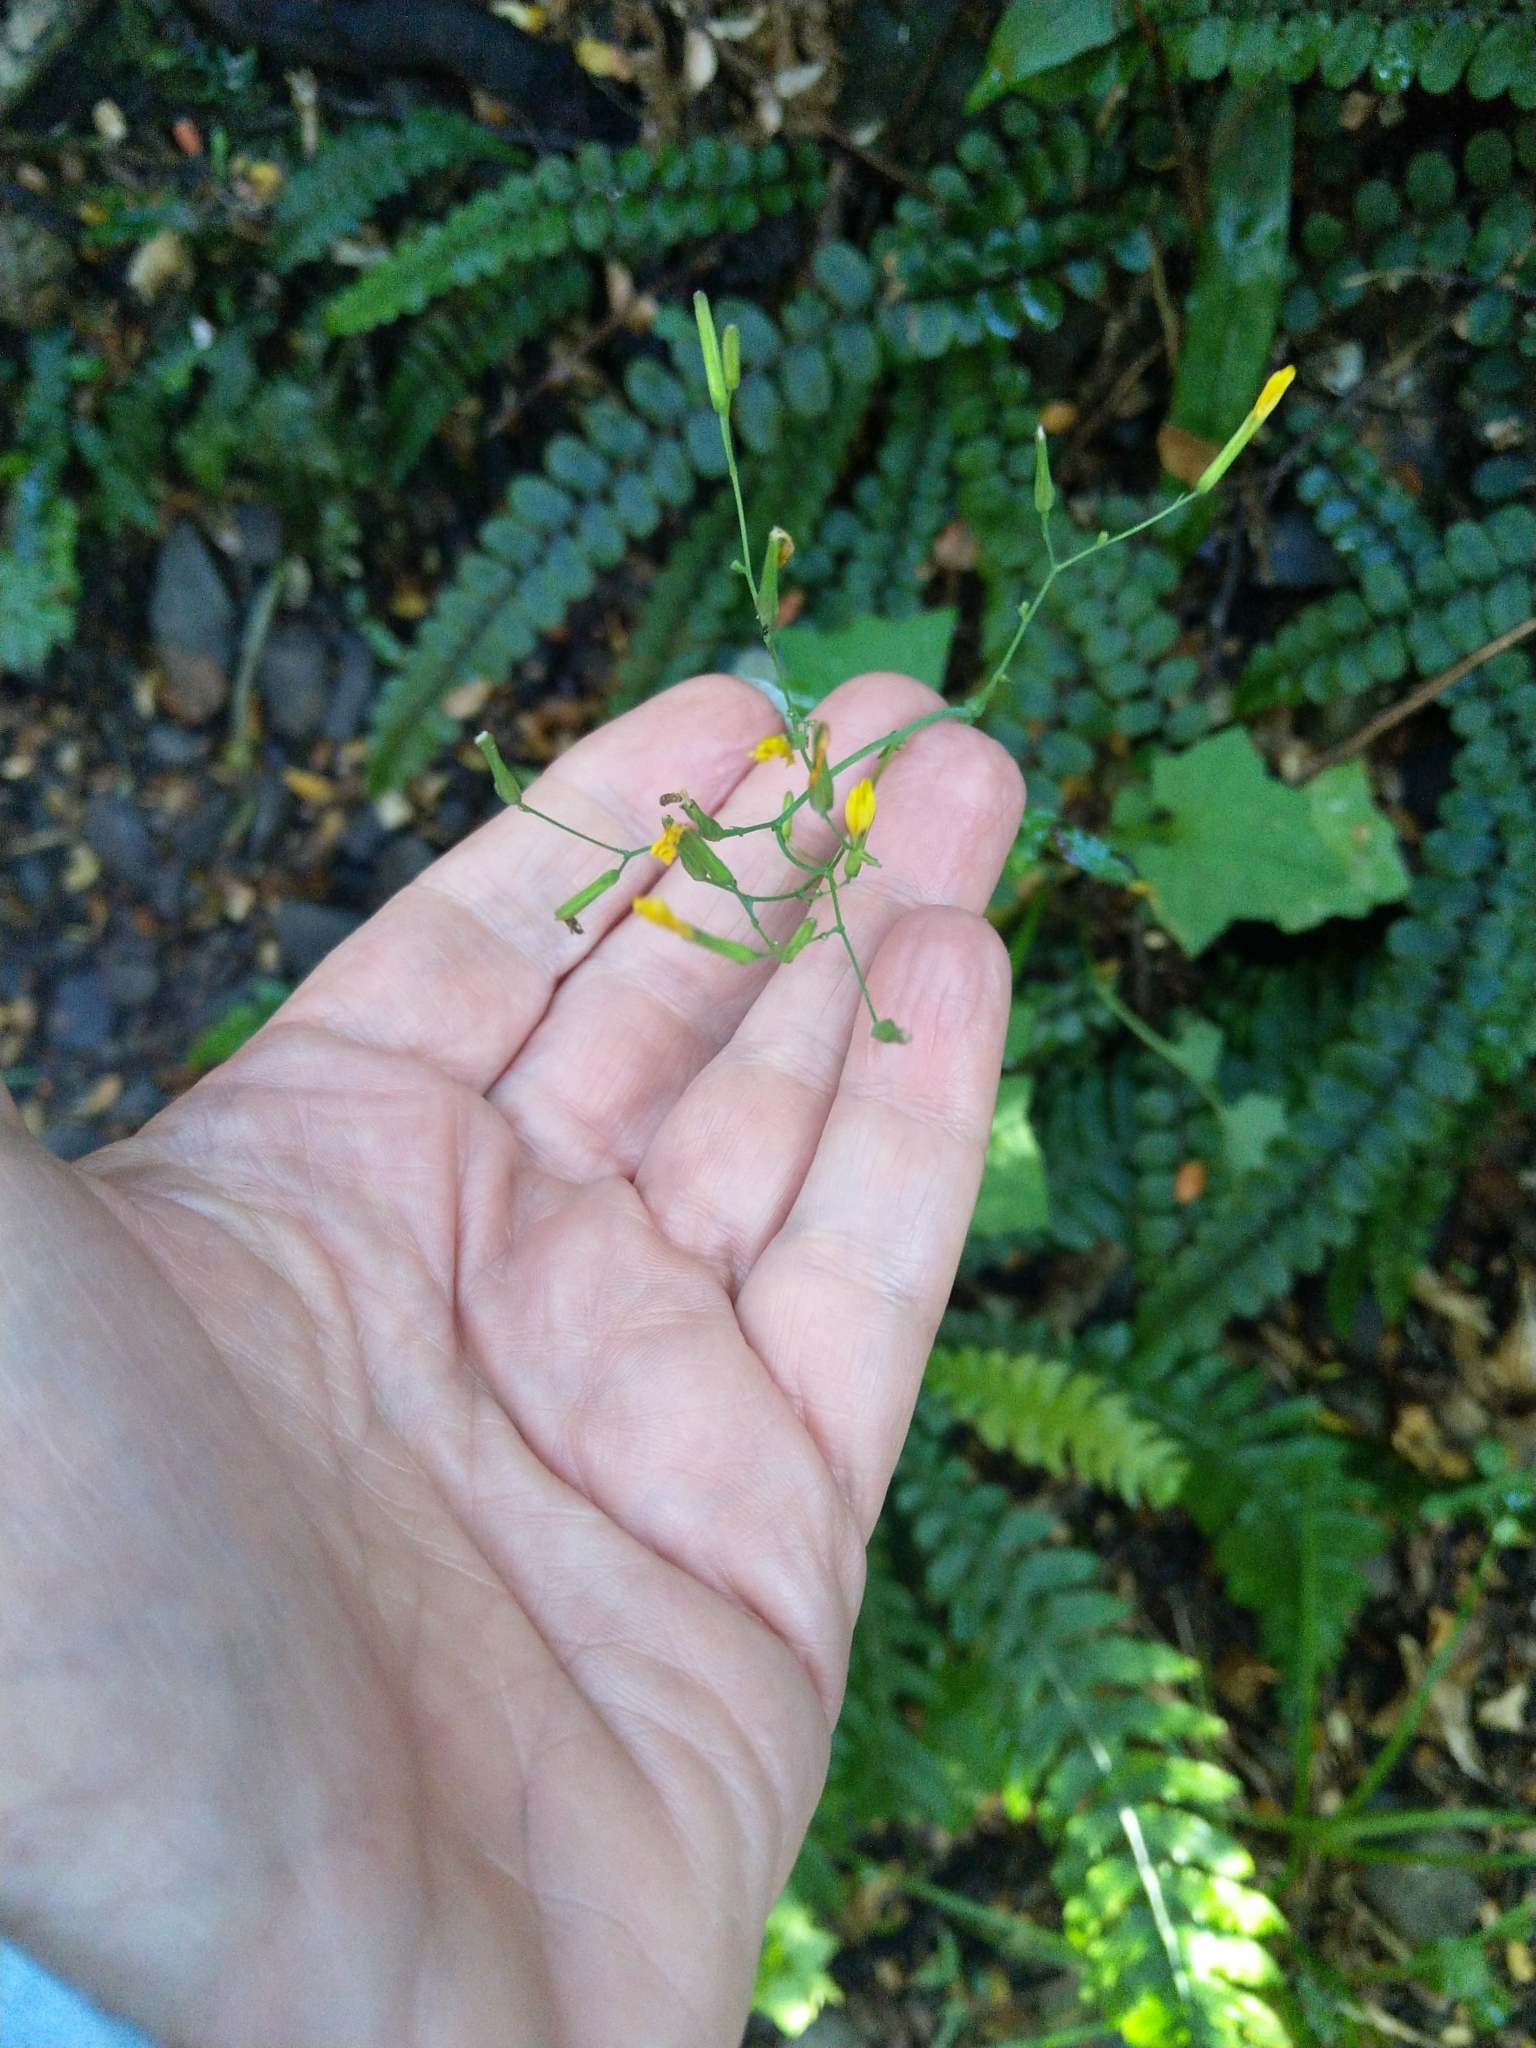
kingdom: Plantae
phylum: Tracheophyta
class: Magnoliopsida
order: Asterales
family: Asteraceae
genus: Mycelis
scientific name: Mycelis muralis
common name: Wall lettuce
